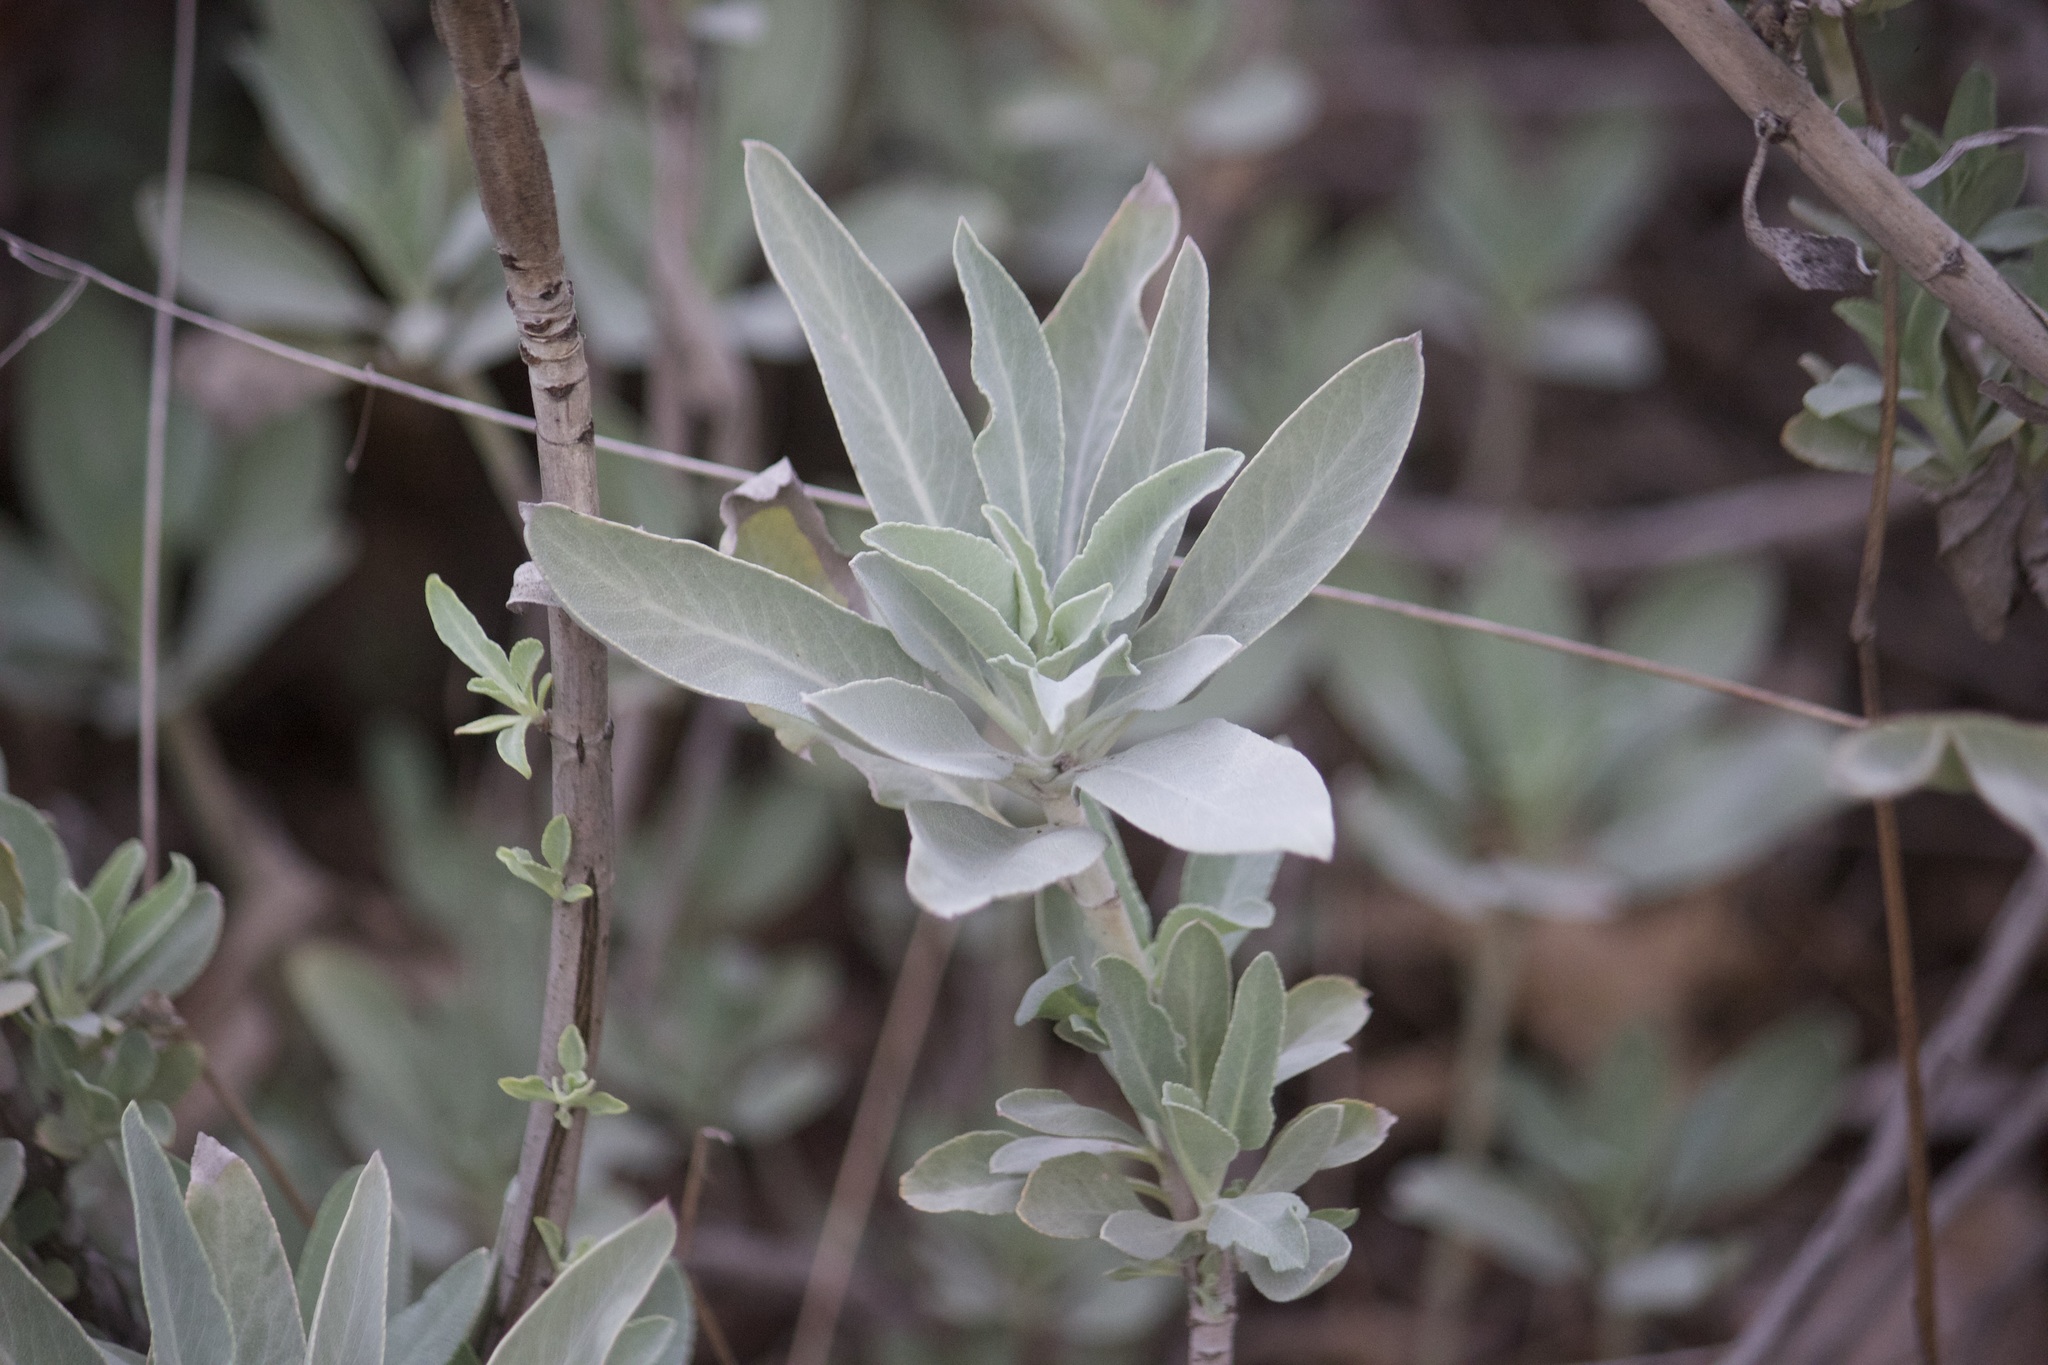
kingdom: Plantae
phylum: Tracheophyta
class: Magnoliopsida
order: Lamiales
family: Lamiaceae
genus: Salvia
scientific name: Salvia apiana
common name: White sage
